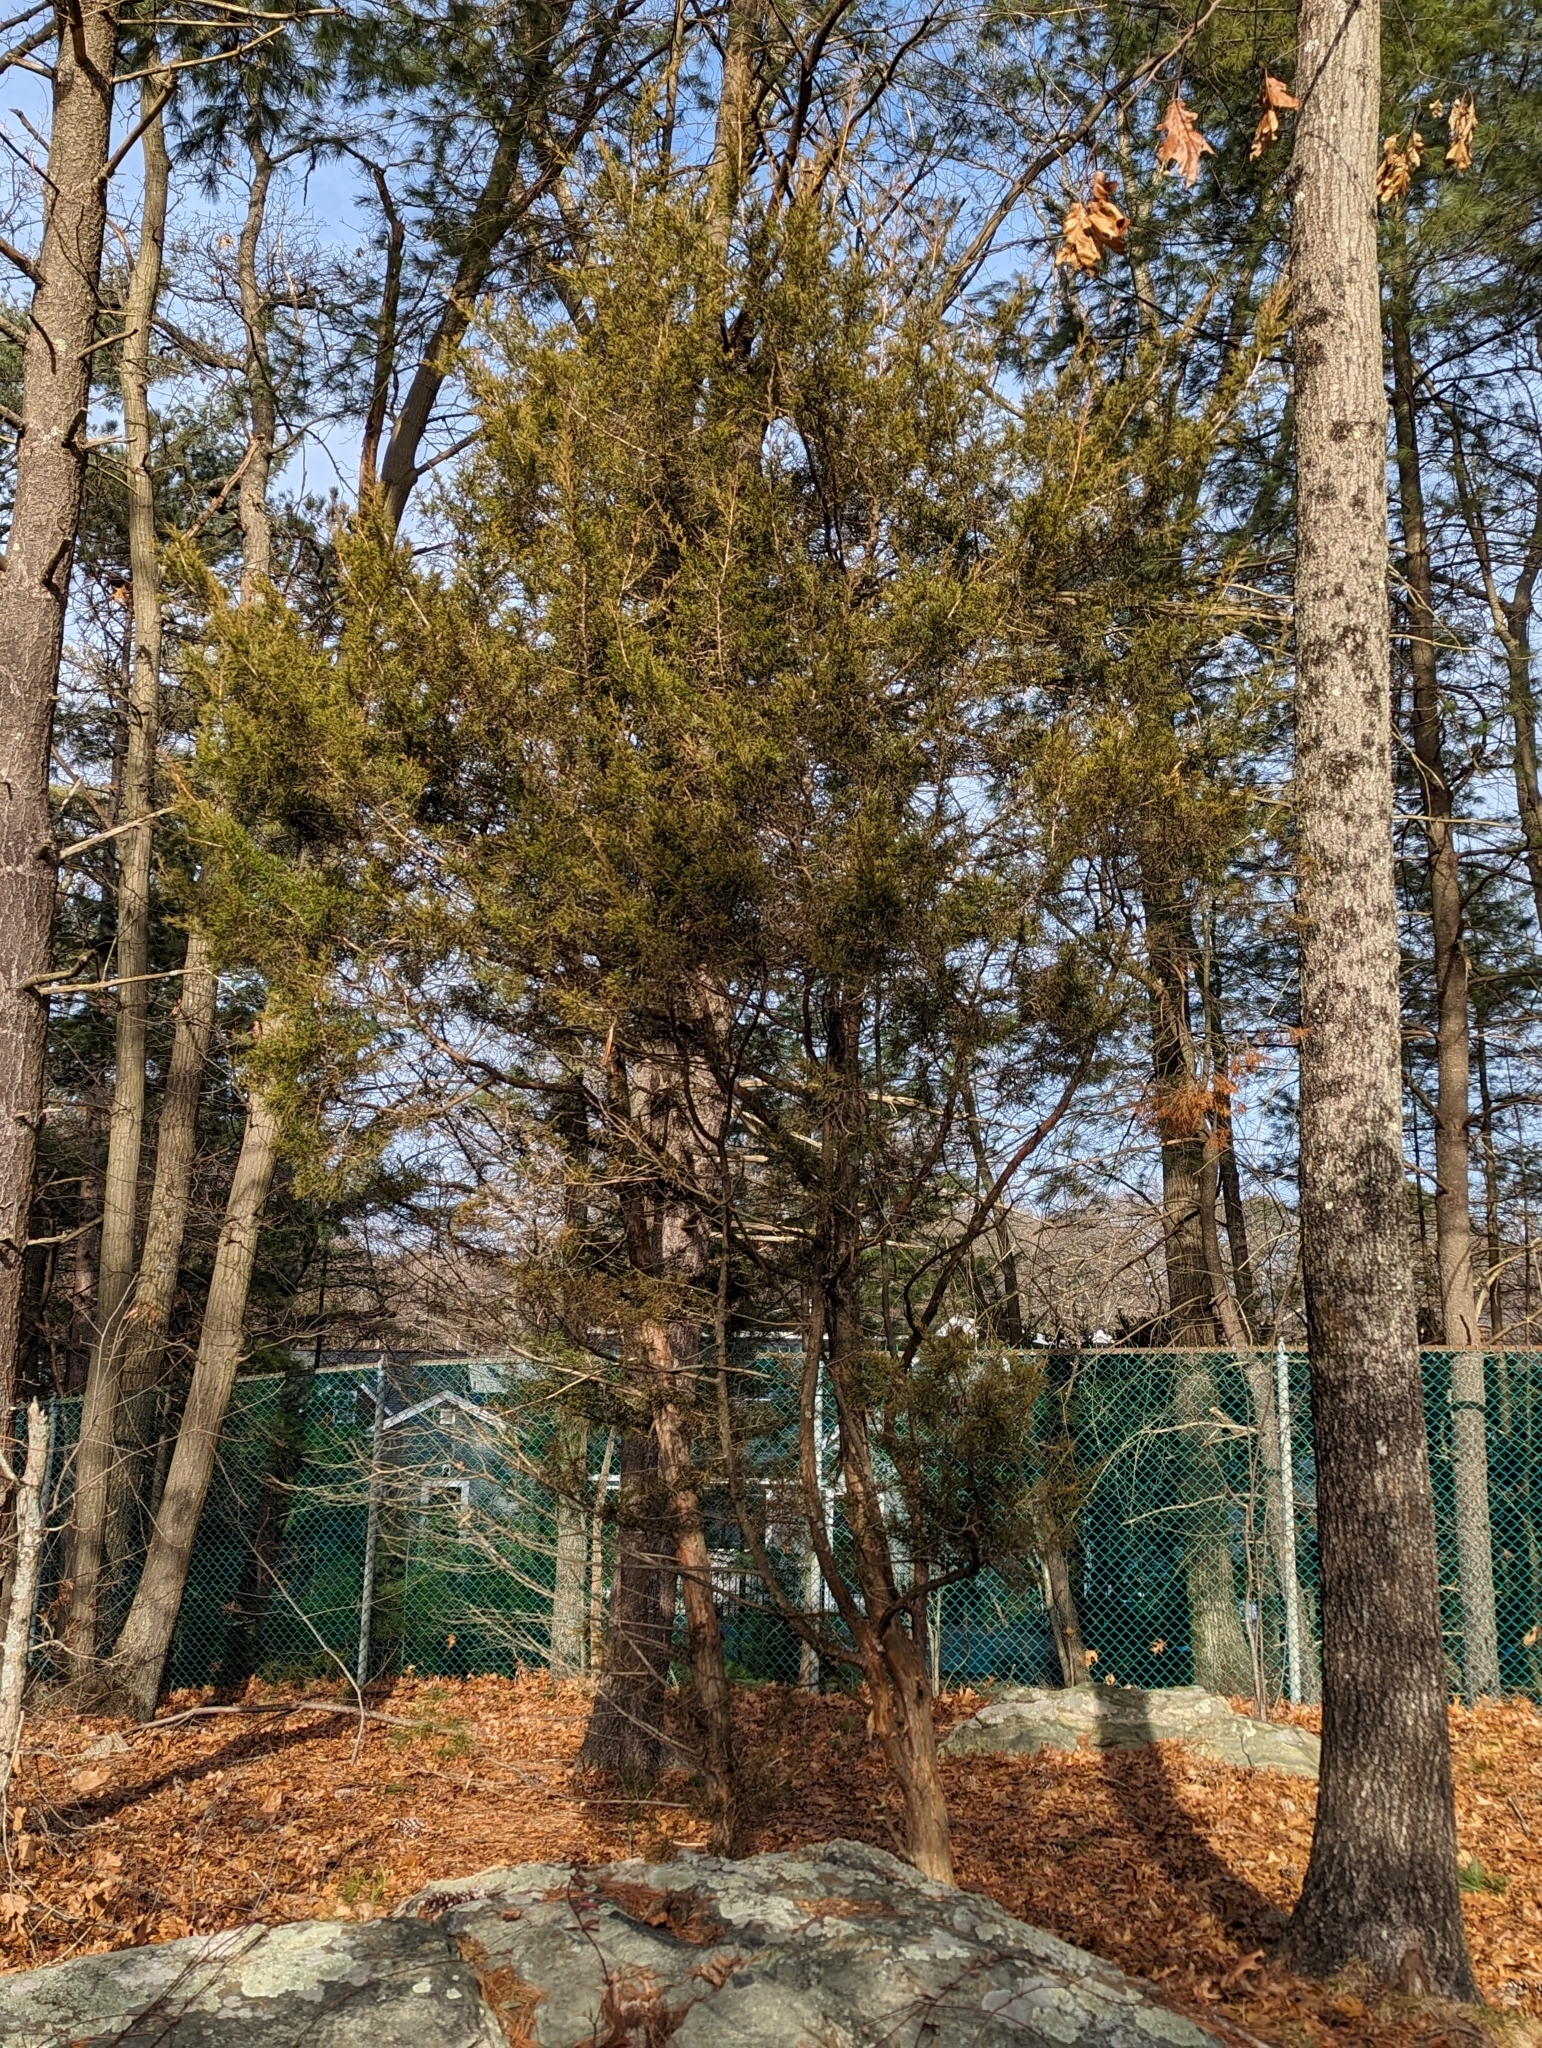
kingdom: Plantae
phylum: Tracheophyta
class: Pinopsida
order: Pinales
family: Cupressaceae
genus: Juniperus
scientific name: Juniperus virginiana
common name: Red juniper
